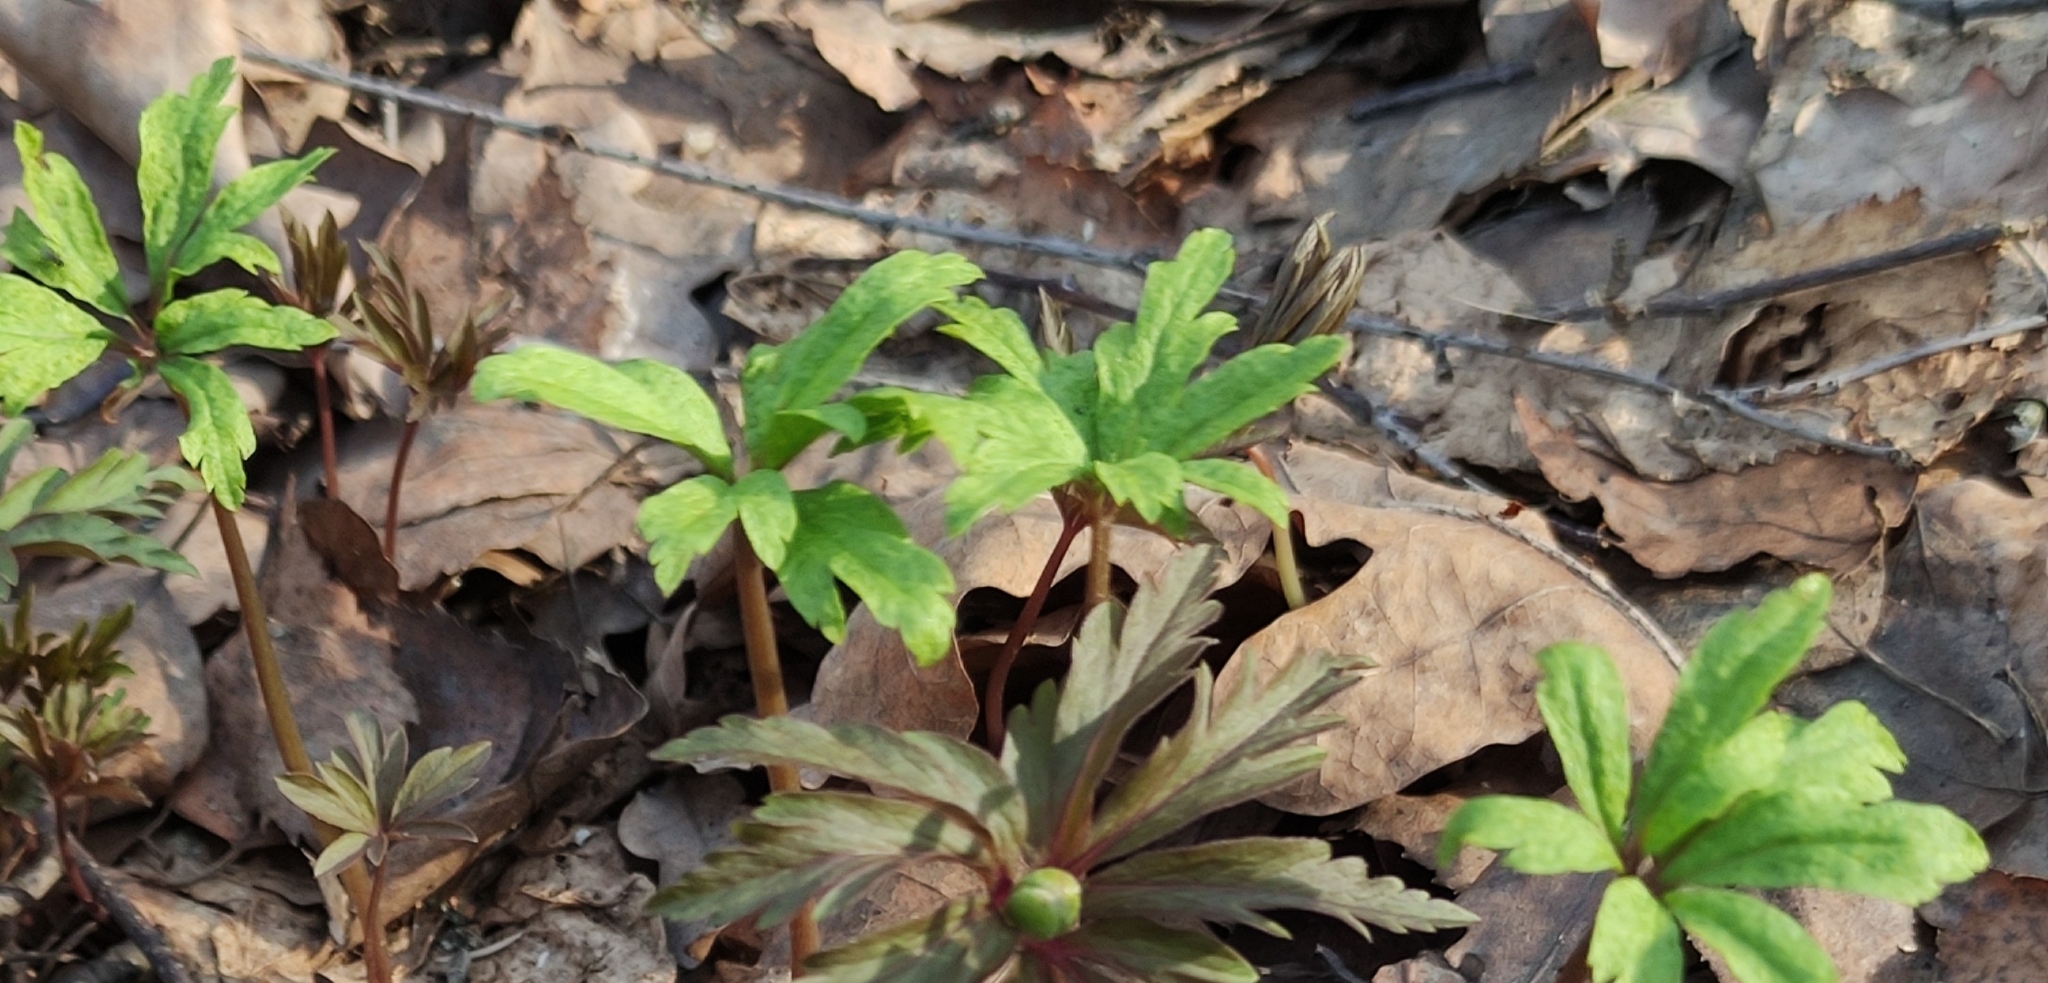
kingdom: Plantae
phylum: Tracheophyta
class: Magnoliopsida
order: Ranunculales
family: Ranunculaceae
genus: Anemone
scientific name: Anemone ranunculoides
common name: Yellow anemone
